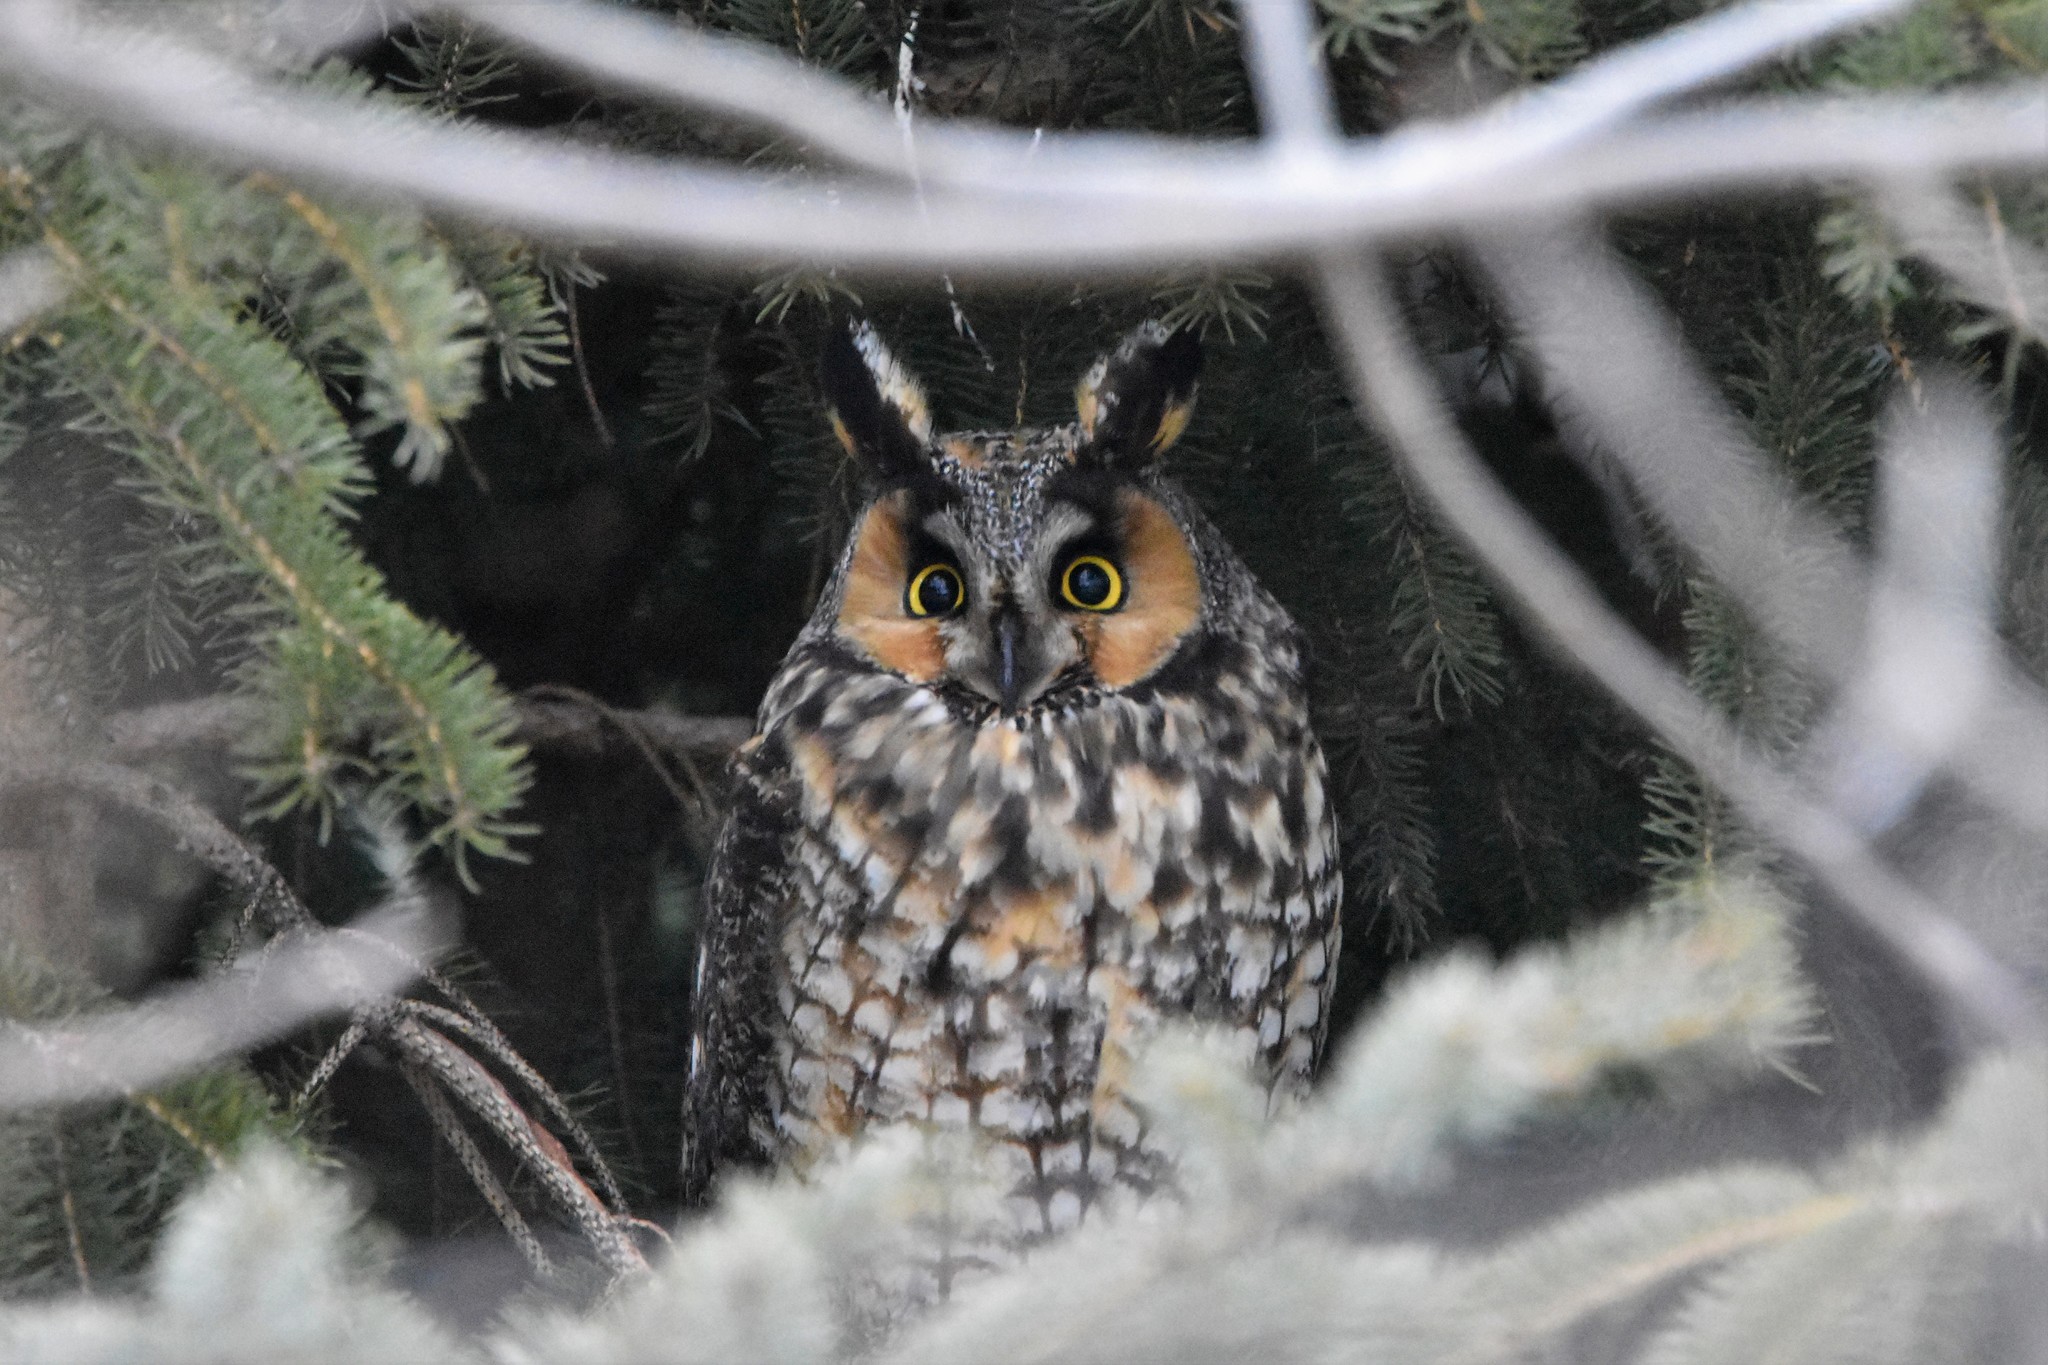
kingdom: Animalia
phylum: Chordata
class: Aves
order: Strigiformes
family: Strigidae
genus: Asio
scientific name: Asio otus
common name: Long-eared owl
